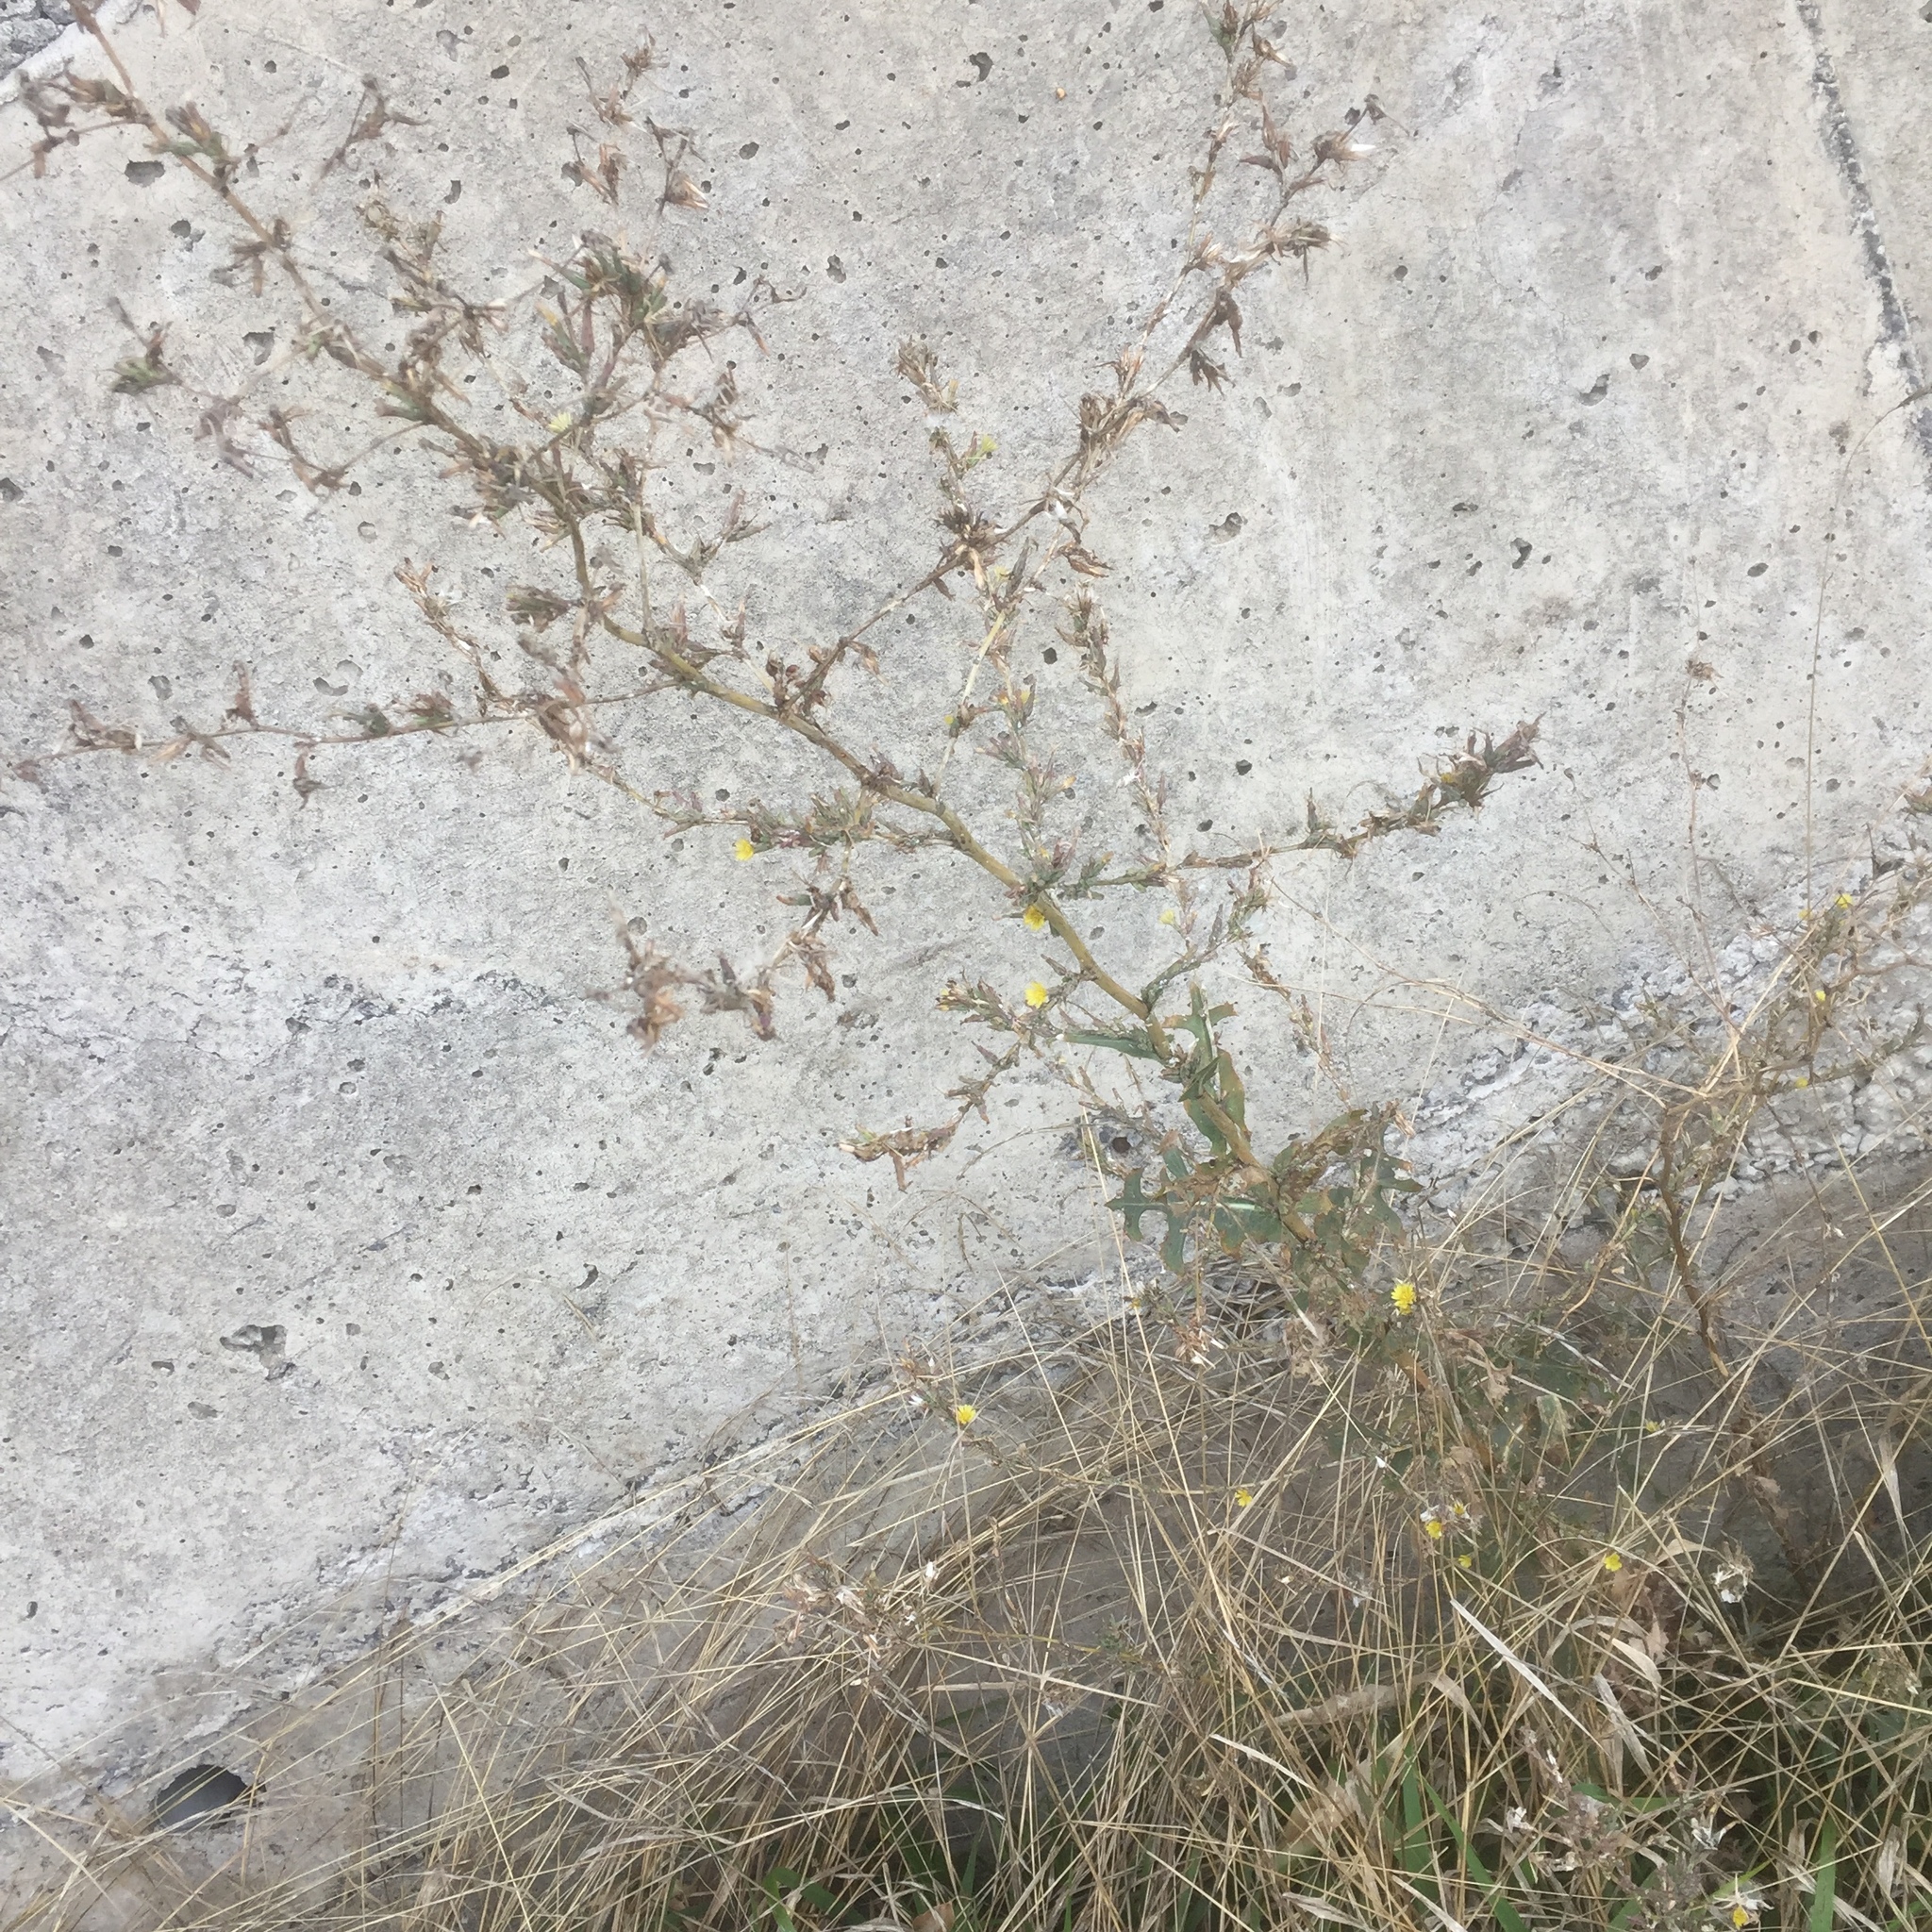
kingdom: Plantae
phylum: Tracheophyta
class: Magnoliopsida
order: Asterales
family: Asteraceae
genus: Lactuca
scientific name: Lactuca serriola
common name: Prickly lettuce
